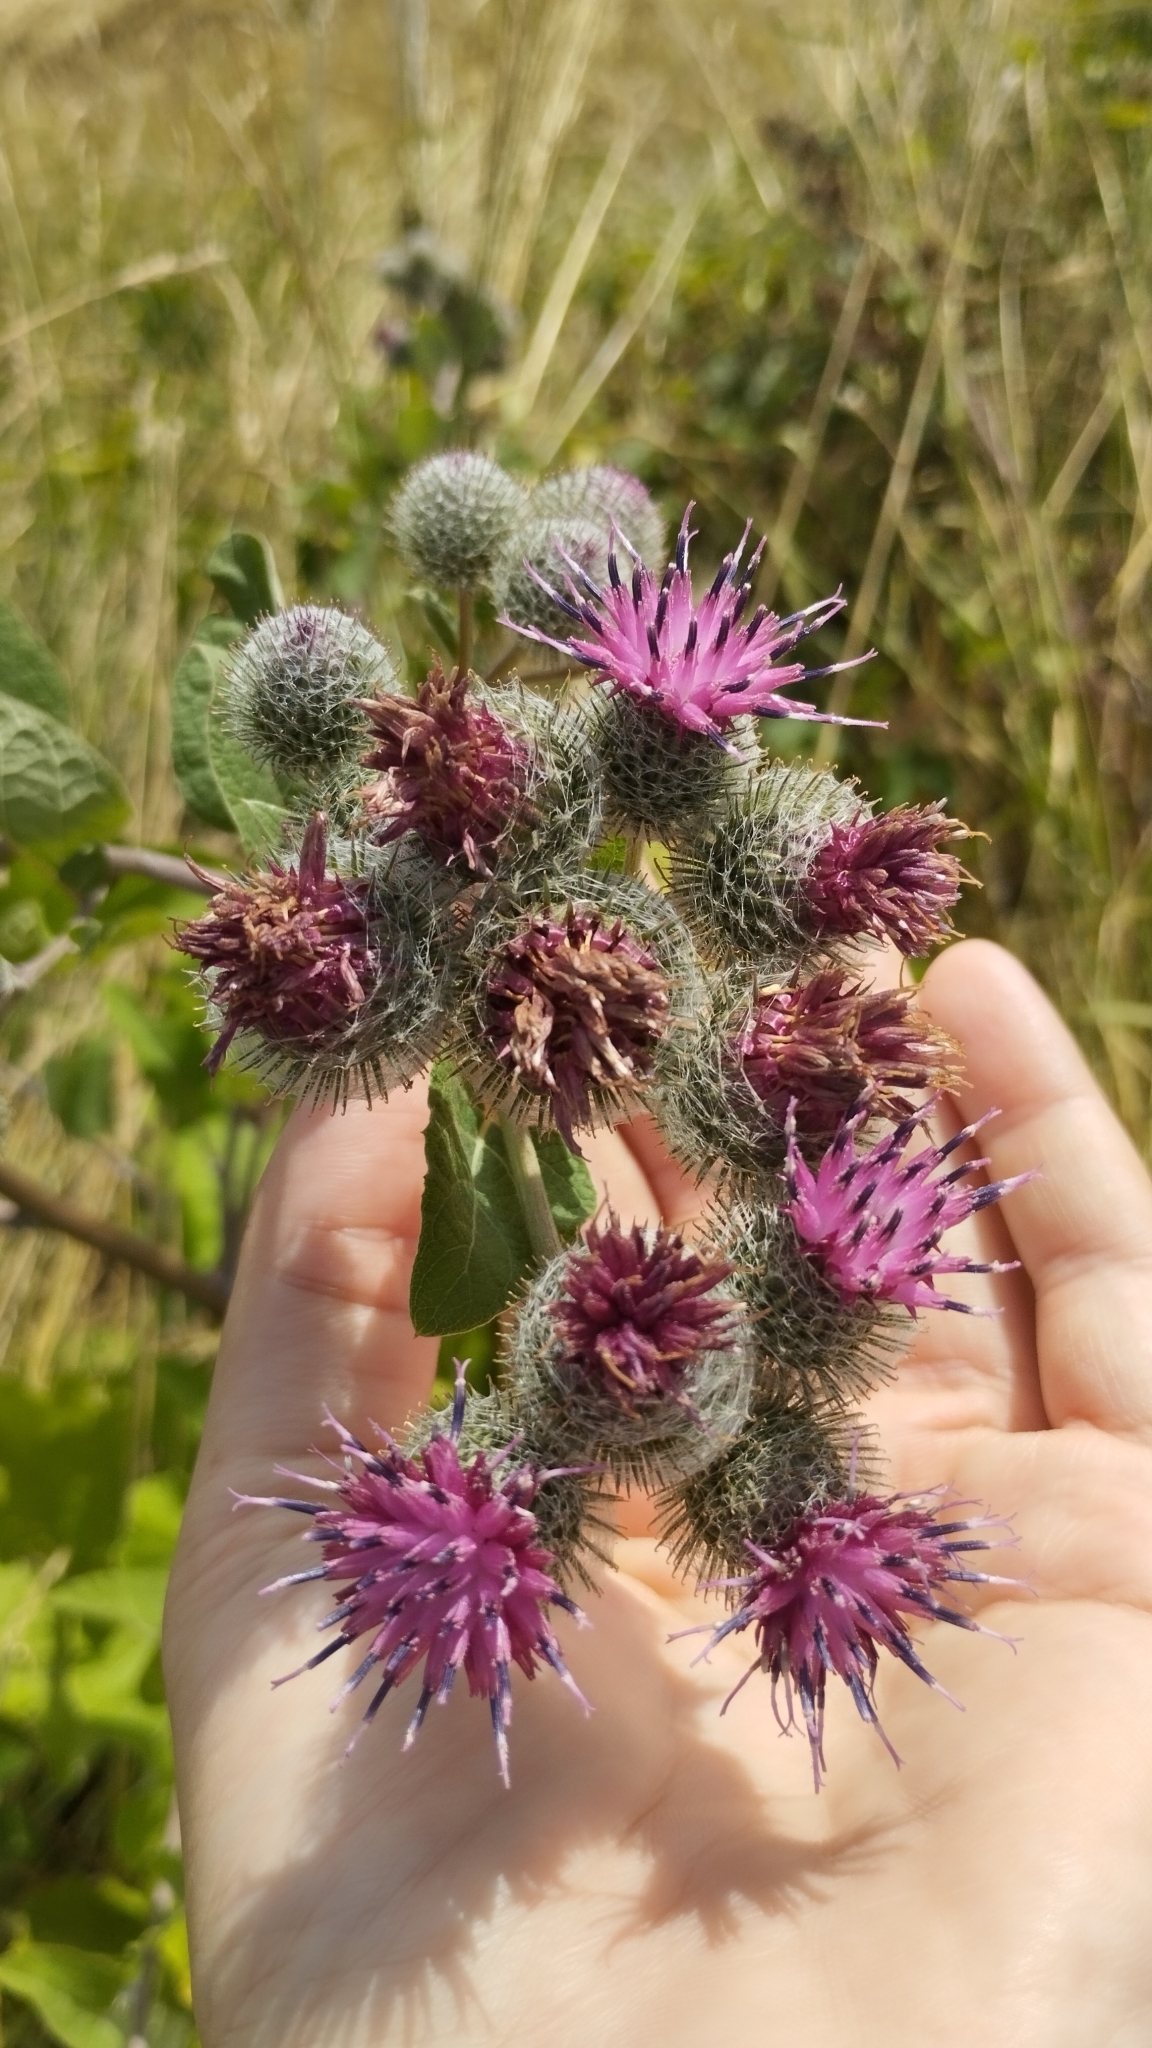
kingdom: Plantae
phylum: Tracheophyta
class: Magnoliopsida
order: Asterales
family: Asteraceae
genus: Arctium
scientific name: Arctium tomentosum
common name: Woolly burdock
